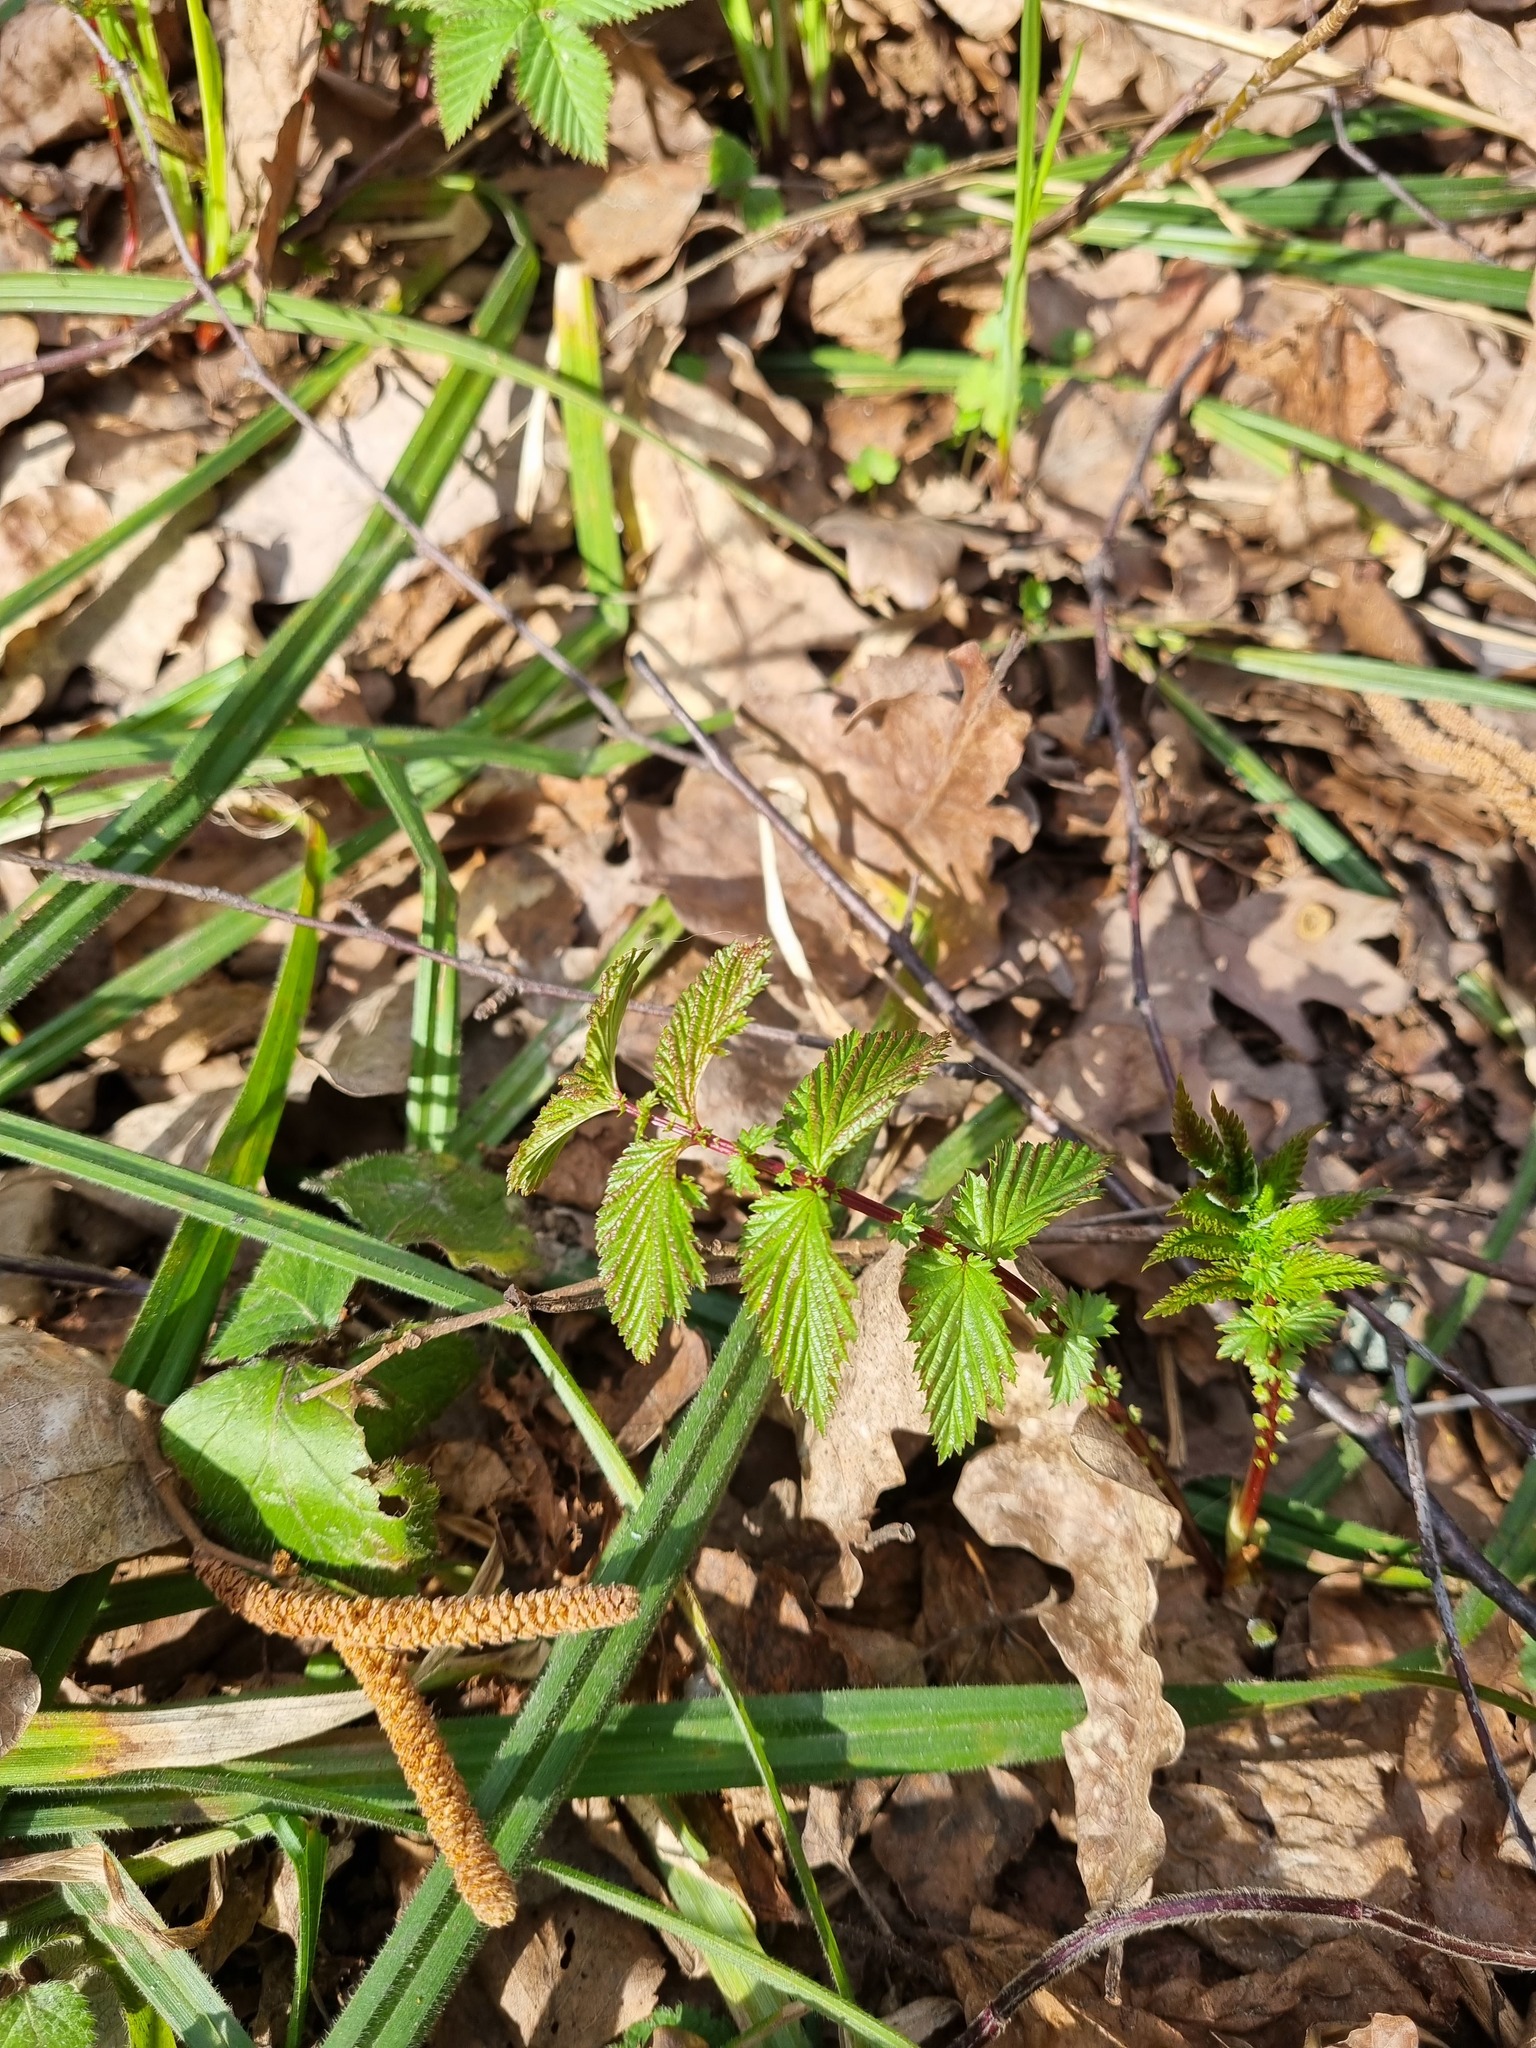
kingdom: Plantae
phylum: Tracheophyta
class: Magnoliopsida
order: Rosales
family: Rosaceae
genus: Filipendula
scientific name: Filipendula ulmaria
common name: Meadowsweet
